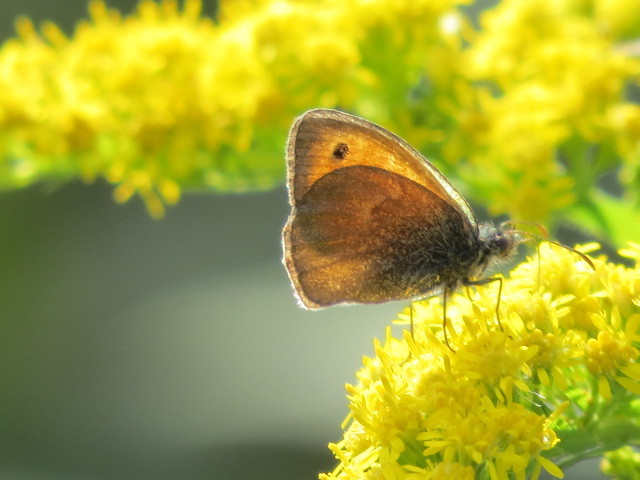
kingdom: Animalia
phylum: Arthropoda
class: Insecta
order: Lepidoptera
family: Nymphalidae
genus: Coenonympha
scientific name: Coenonympha pamphilus
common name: Small heath
